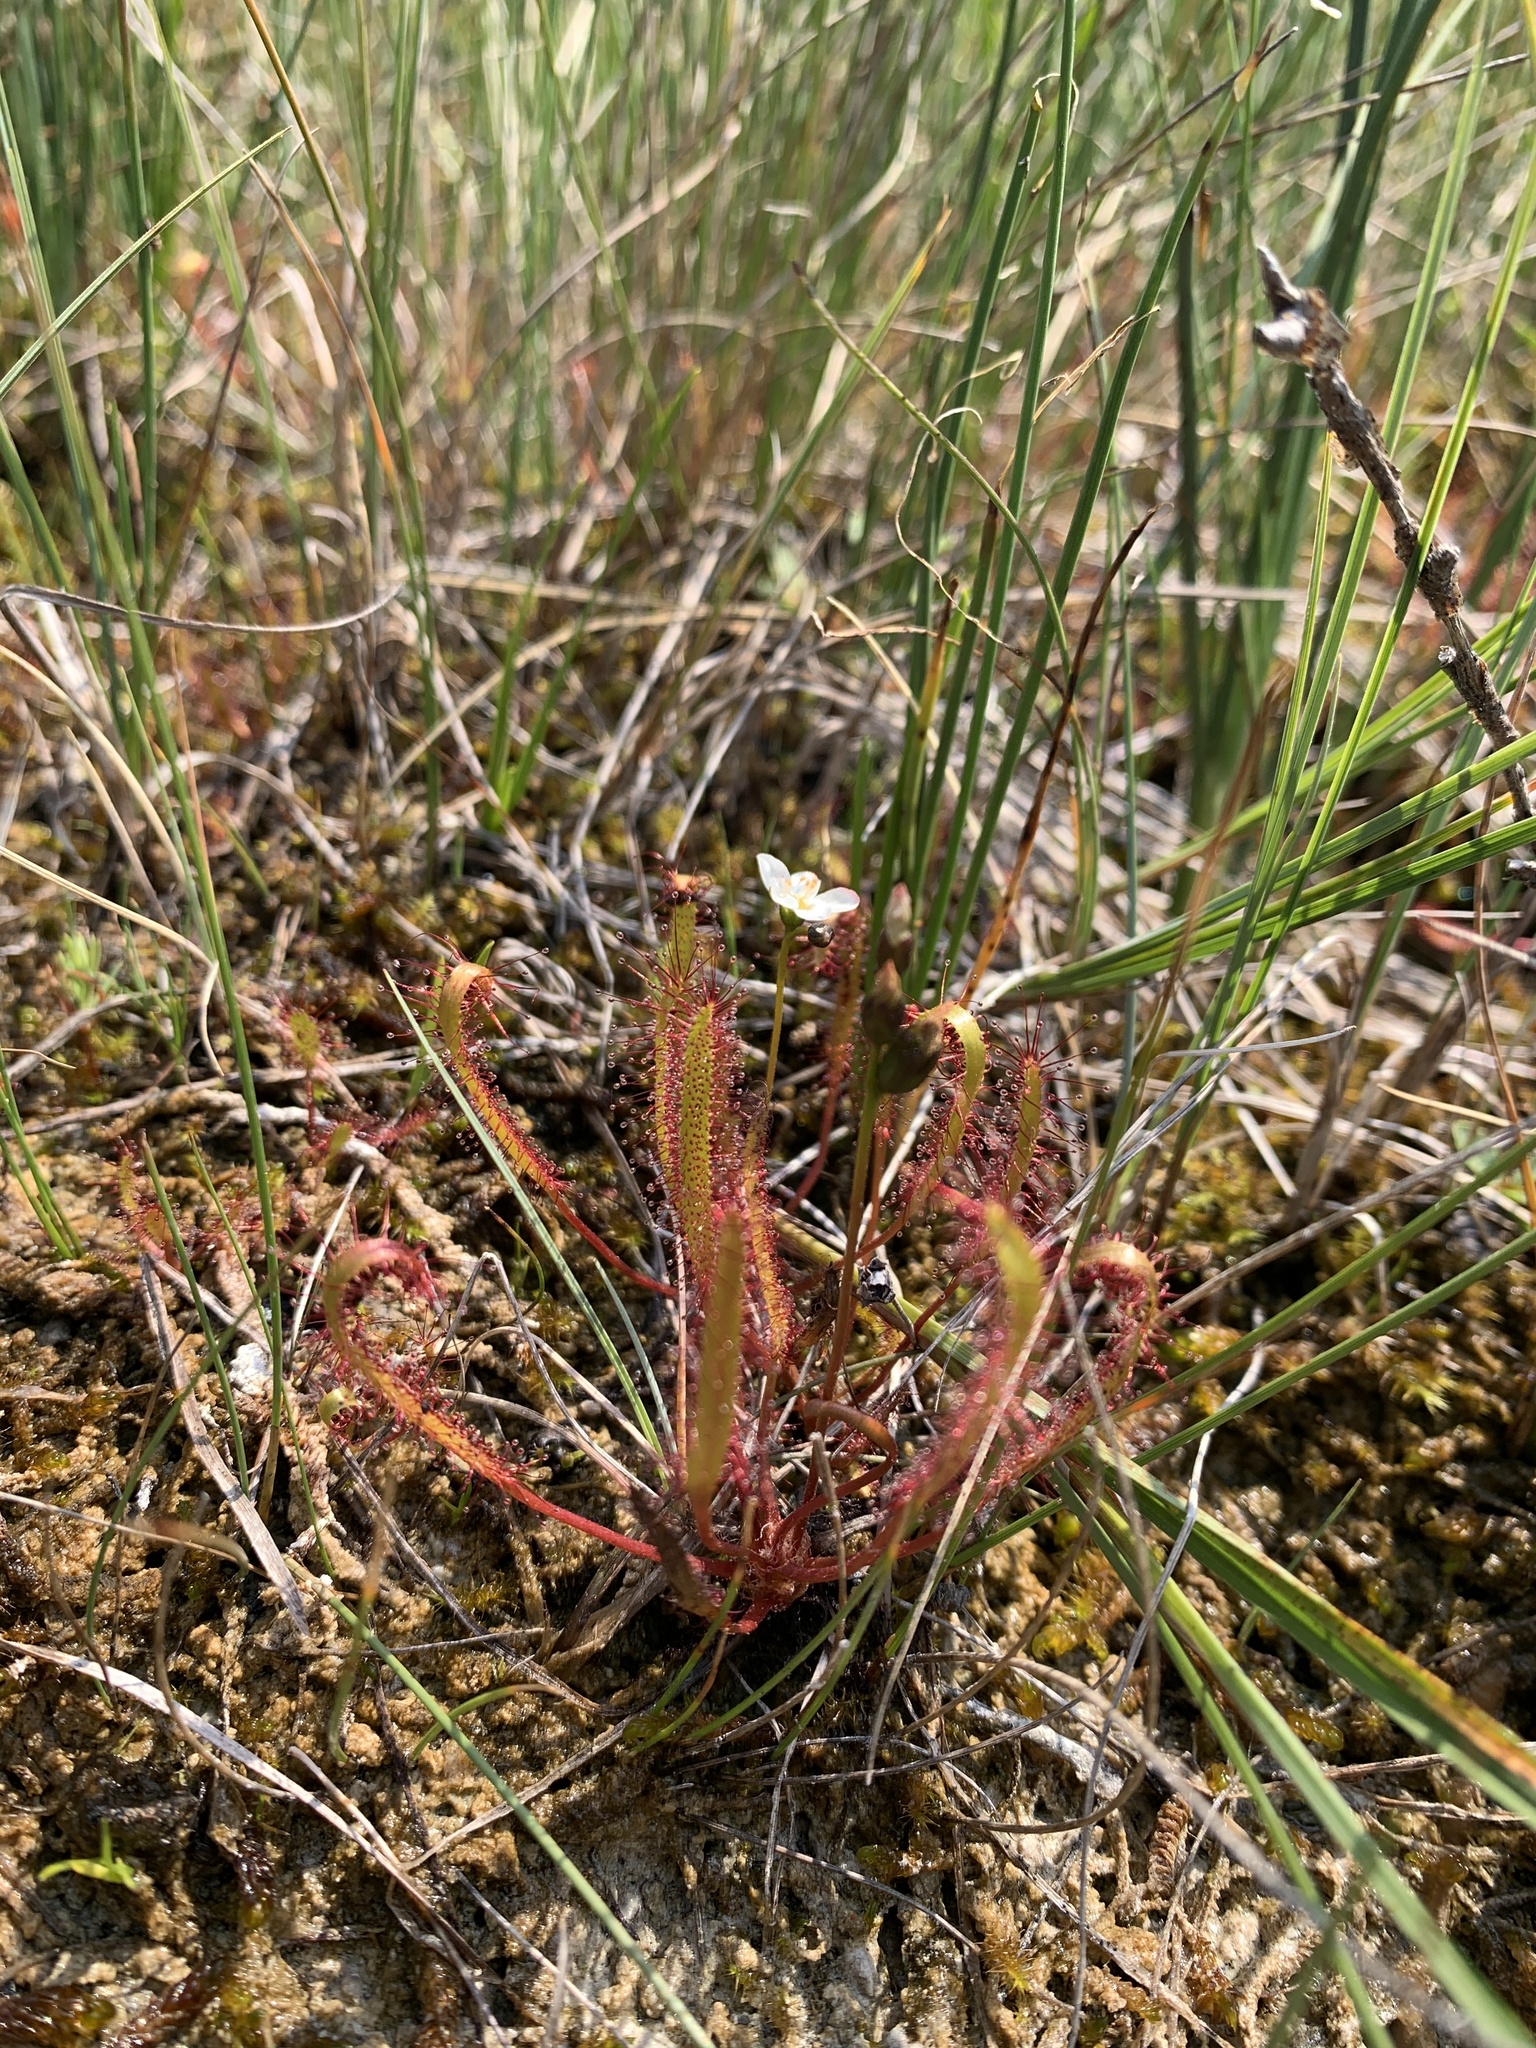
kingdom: Plantae
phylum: Tracheophyta
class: Magnoliopsida
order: Caryophyllales
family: Droseraceae
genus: Drosera
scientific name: Drosera linearis
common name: Linear-leaved sundew
